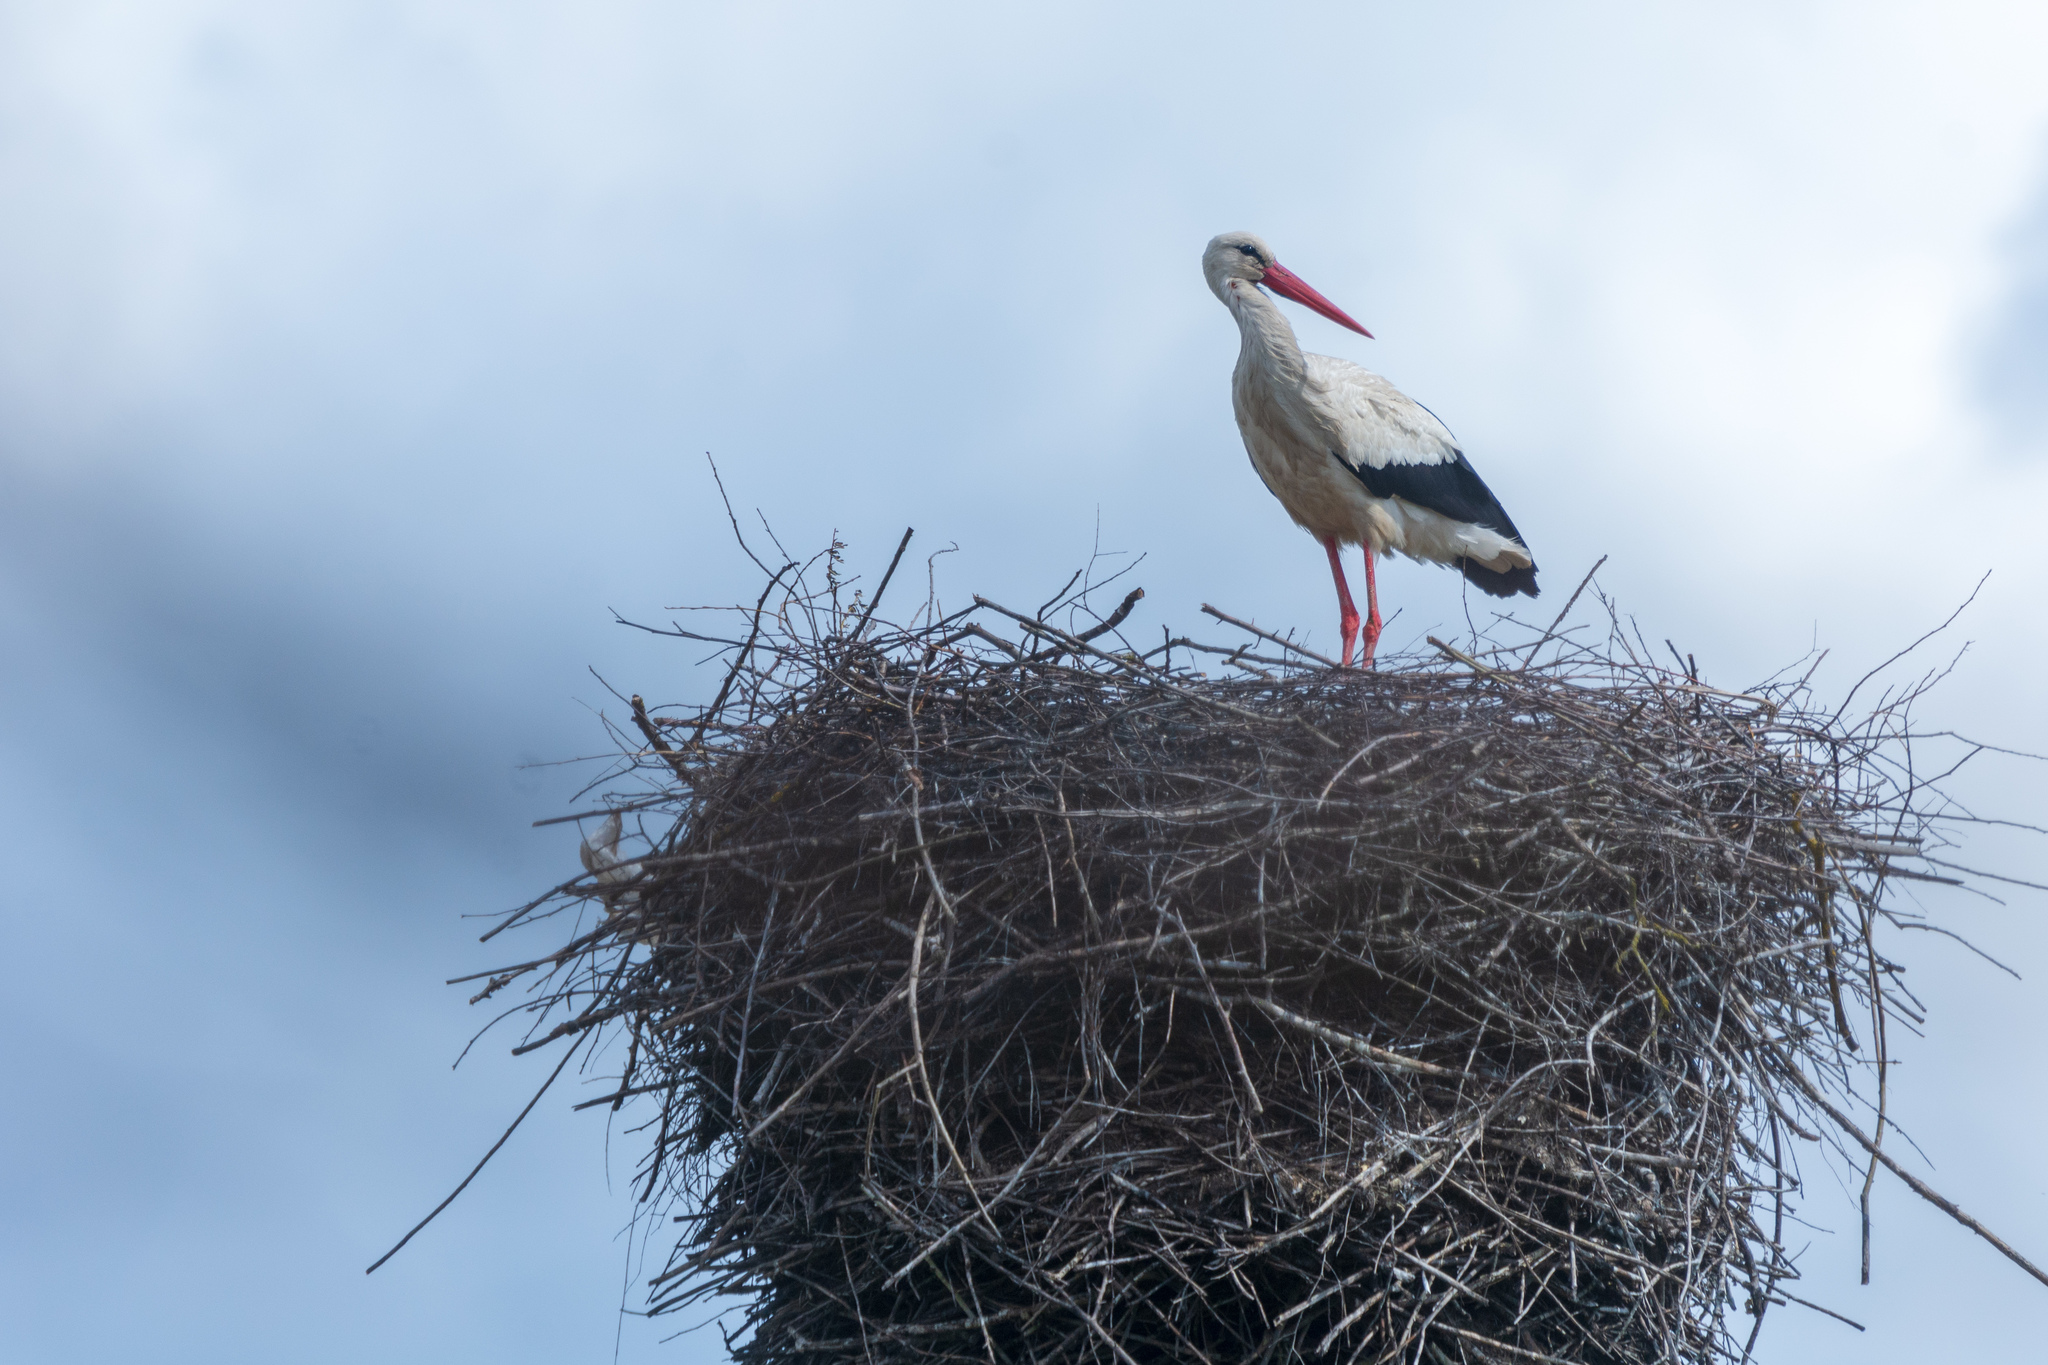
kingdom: Animalia
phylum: Chordata
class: Aves
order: Ciconiiformes
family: Ciconiidae
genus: Ciconia
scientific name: Ciconia ciconia
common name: White stork
